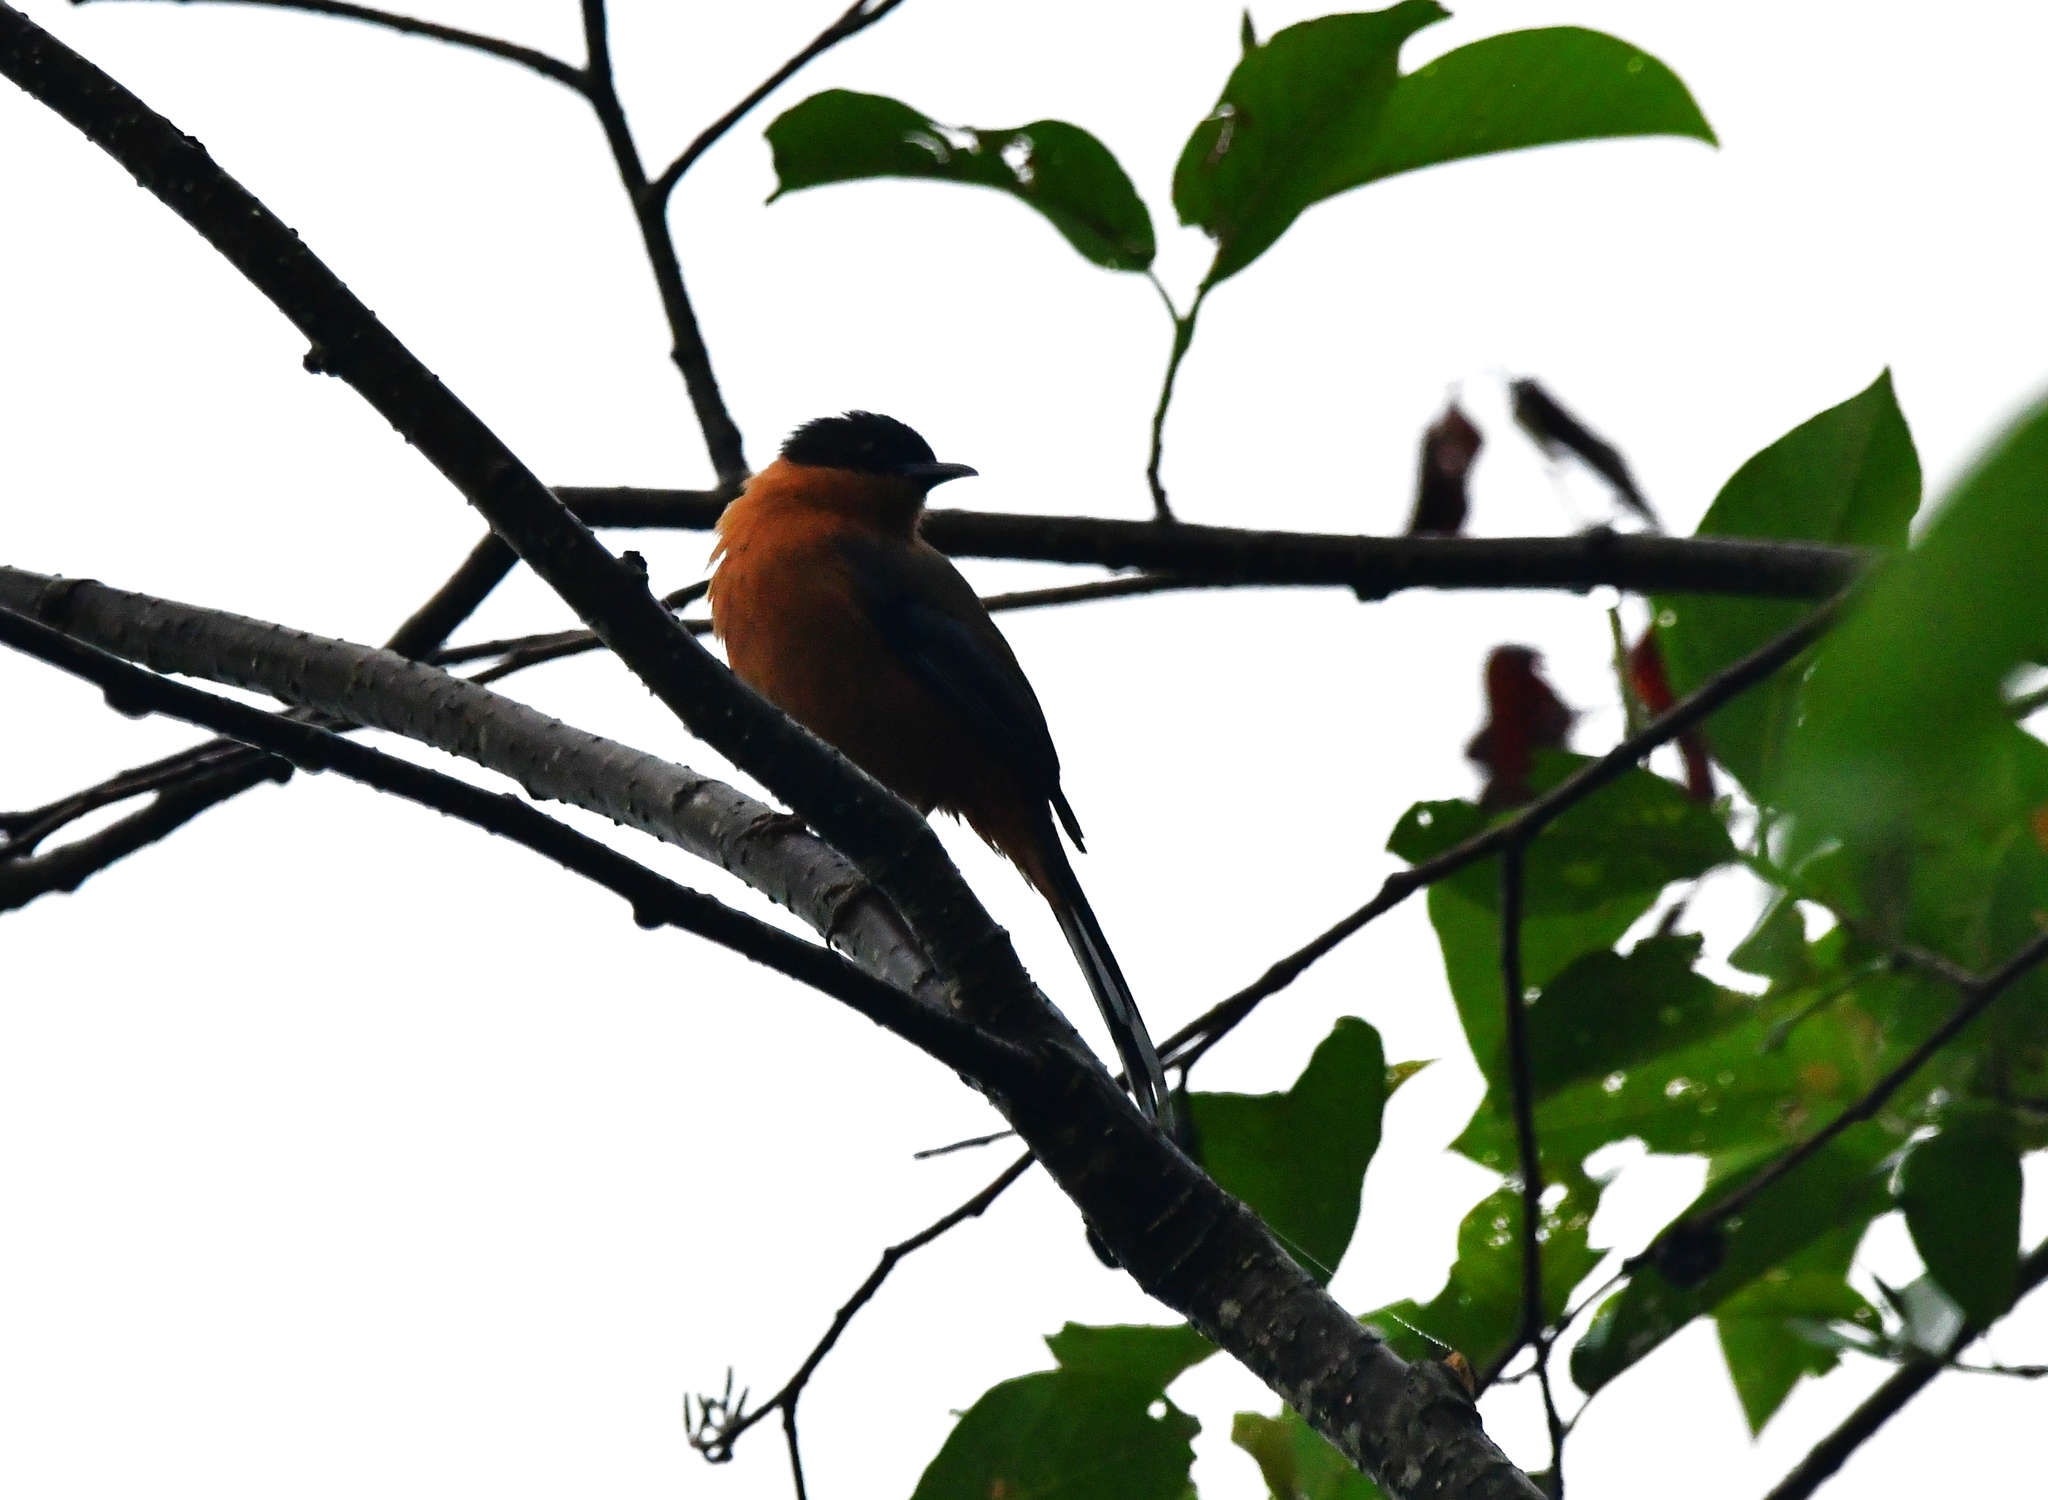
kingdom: Animalia
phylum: Chordata
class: Aves
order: Passeriformes
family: Leiothrichidae
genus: Heterophasia
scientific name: Heterophasia capistrata
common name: Rufous sibia
